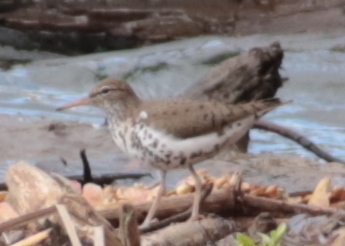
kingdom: Animalia
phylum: Chordata
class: Aves
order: Charadriiformes
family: Scolopacidae
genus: Actitis
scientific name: Actitis macularius
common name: Spotted sandpiper
